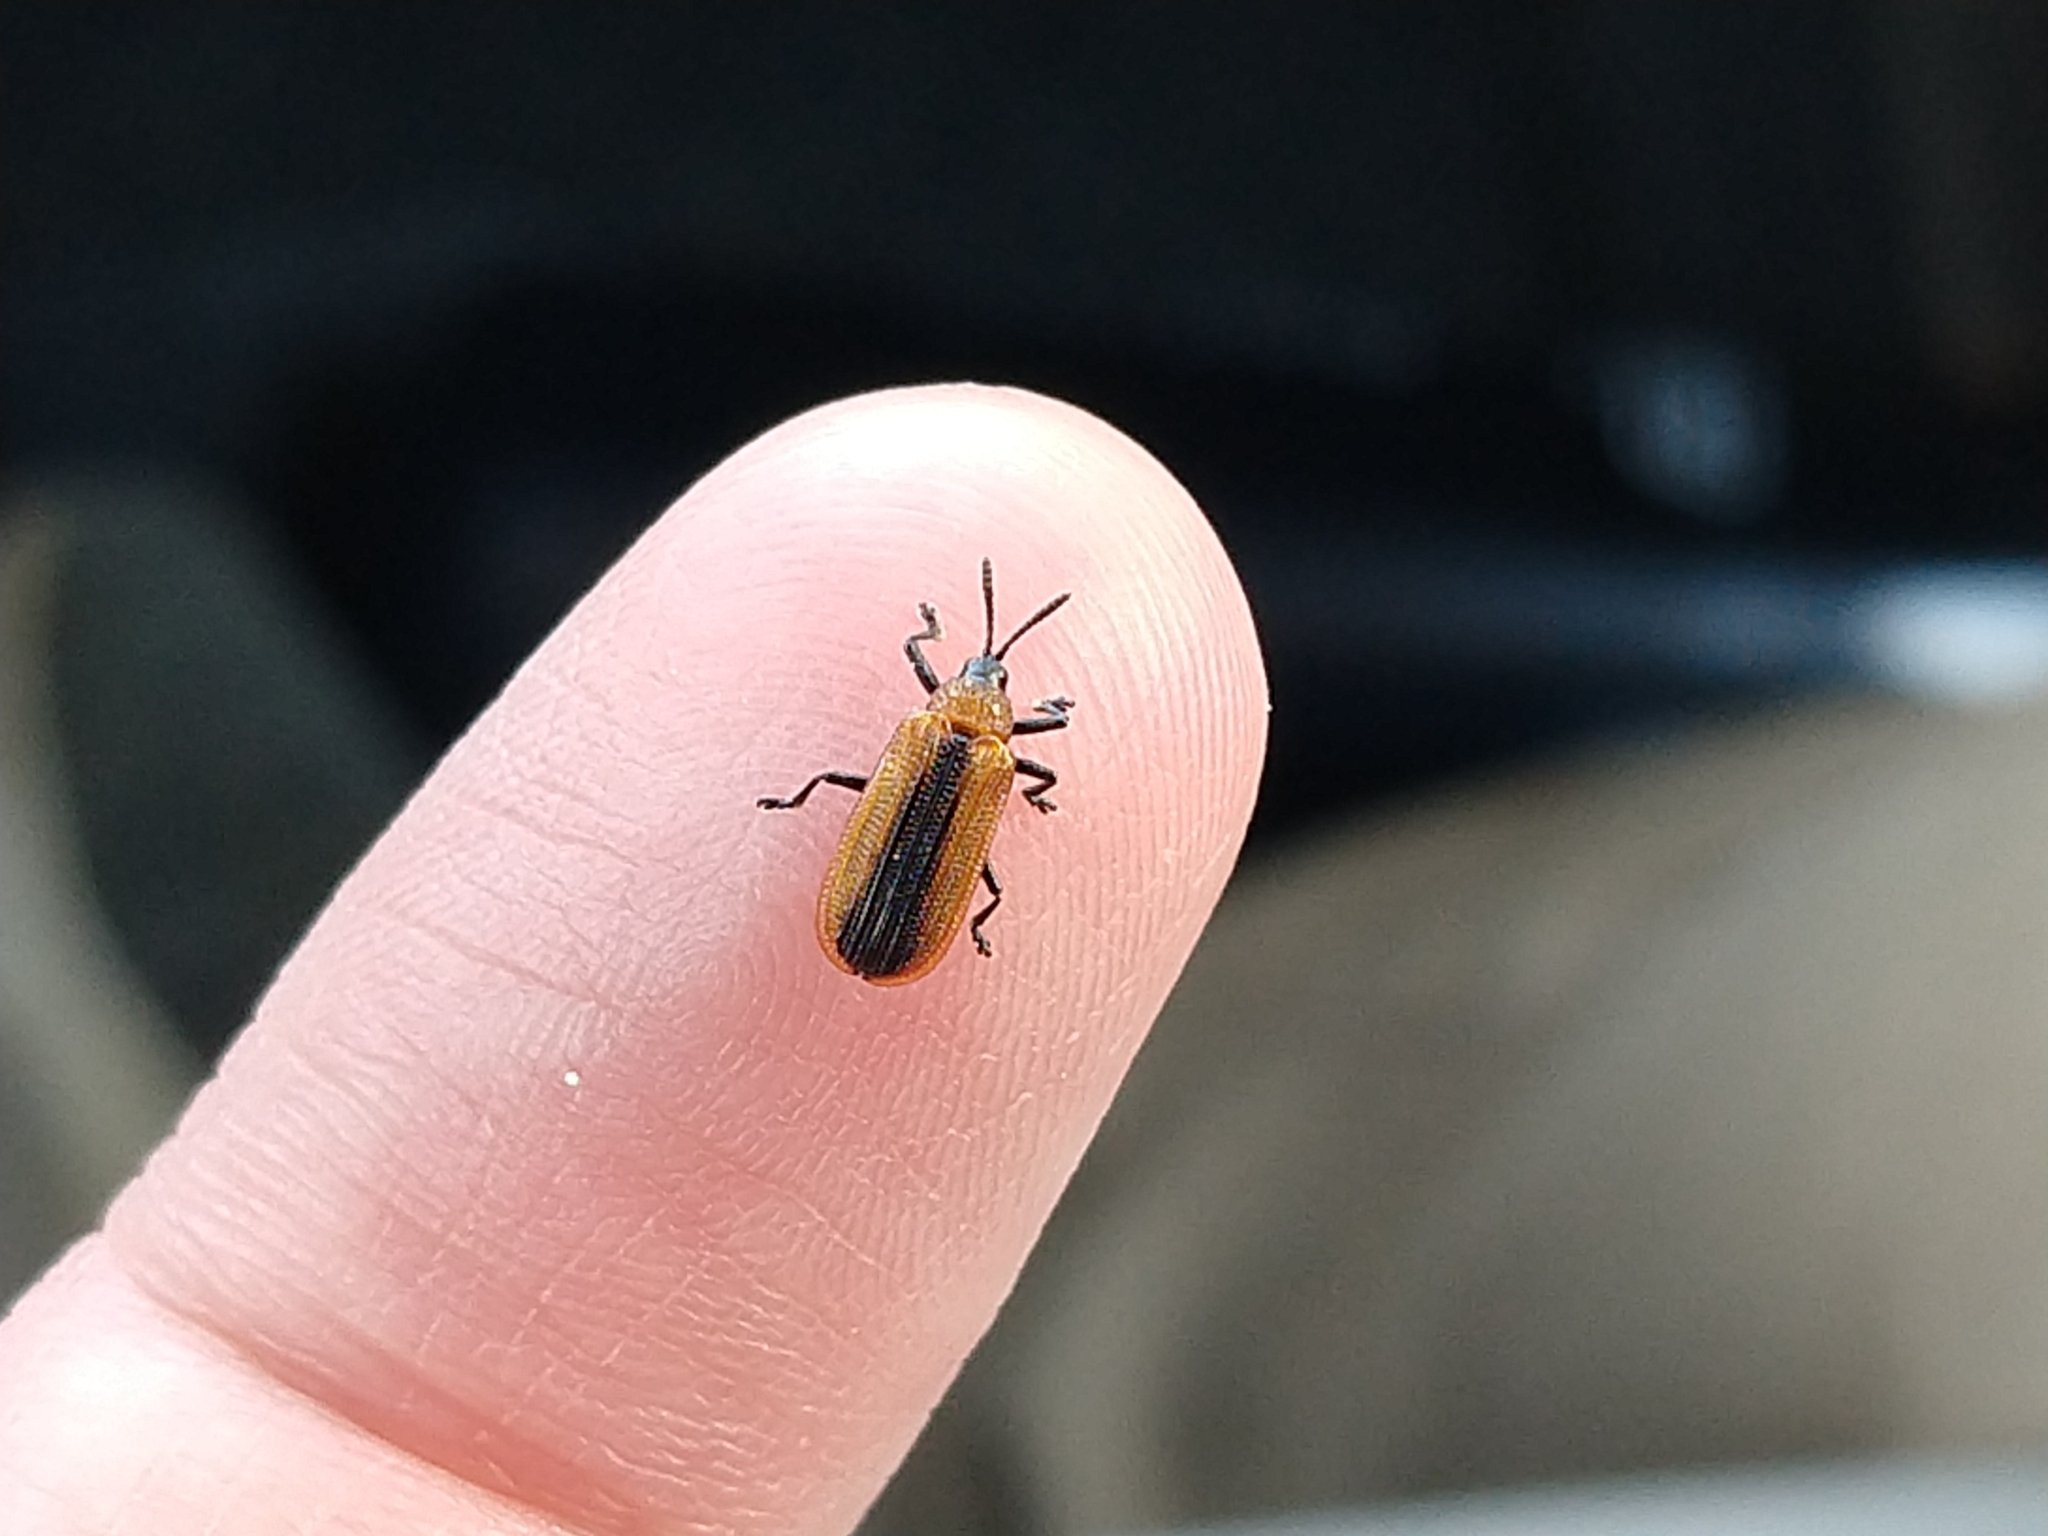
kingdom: Animalia
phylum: Arthropoda
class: Insecta
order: Coleoptera
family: Chrysomelidae
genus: Odontota
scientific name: Odontota dorsalis
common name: Locust leaf-miner beetle
